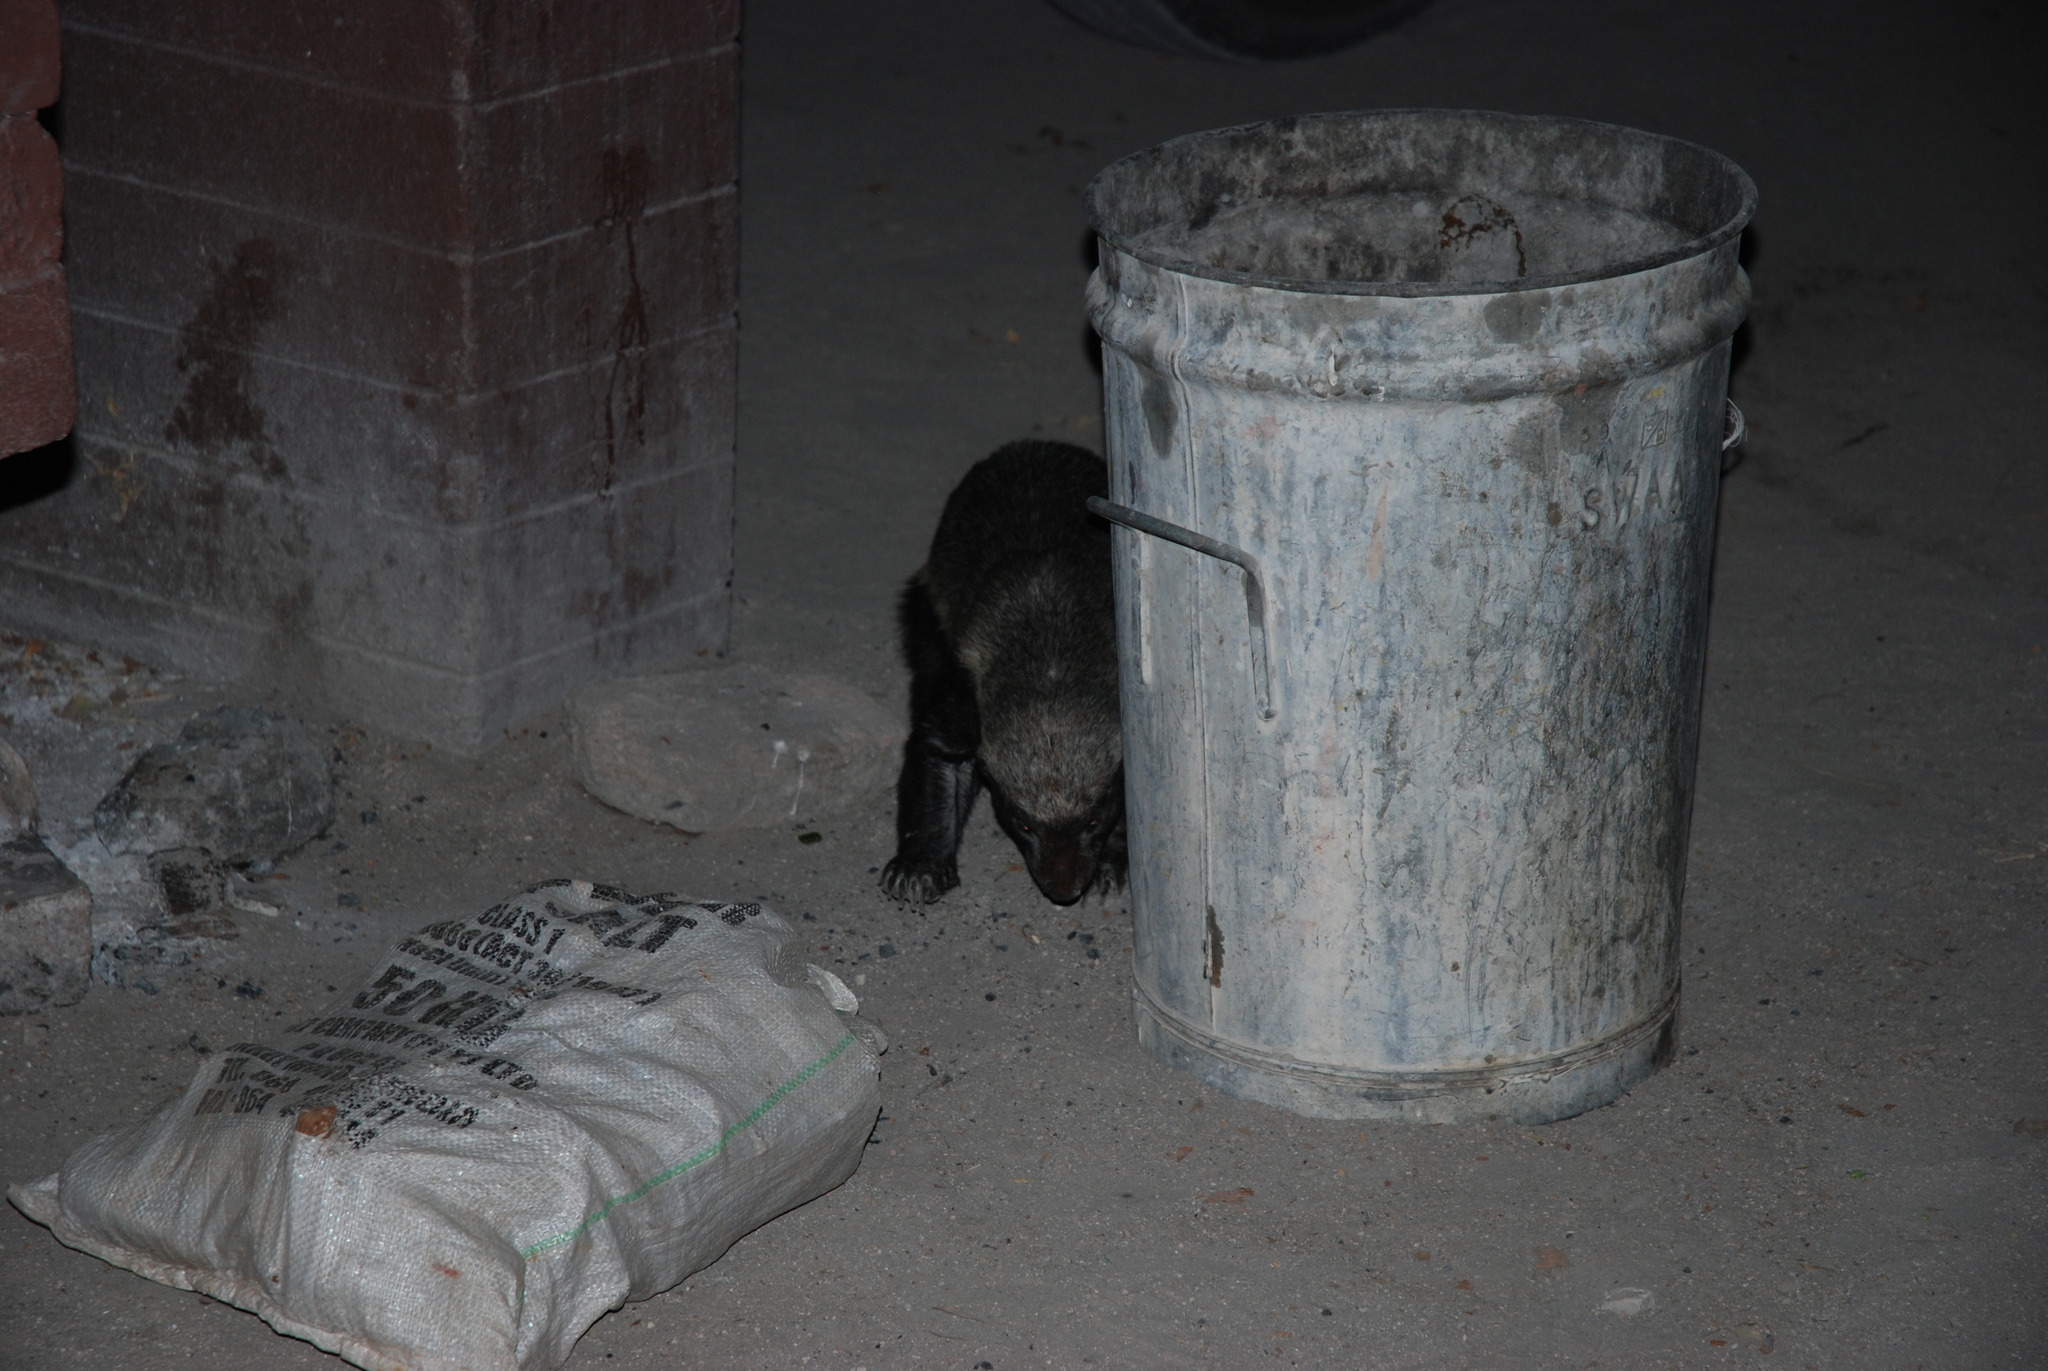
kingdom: Animalia
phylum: Chordata
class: Mammalia
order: Carnivora
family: Mustelidae
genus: Mellivora
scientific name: Mellivora capensis
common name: Honey badger
